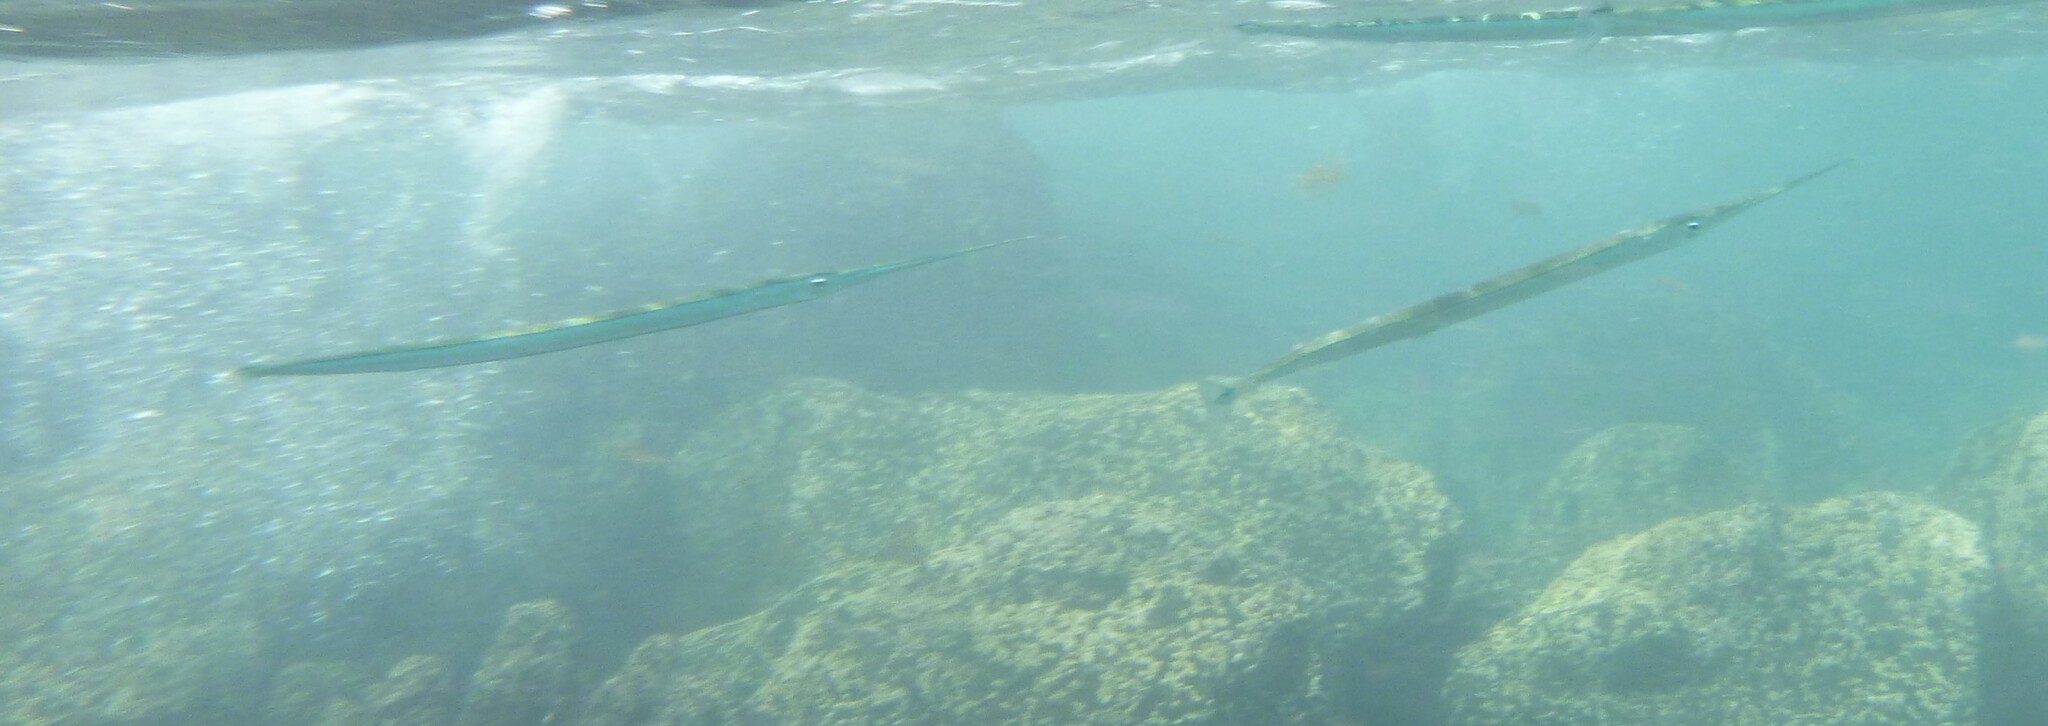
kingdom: Animalia
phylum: Chordata
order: Beloniformes
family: Belonidae
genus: Platybelone
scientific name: Platybelone argalus
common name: Keeltail needlefish
